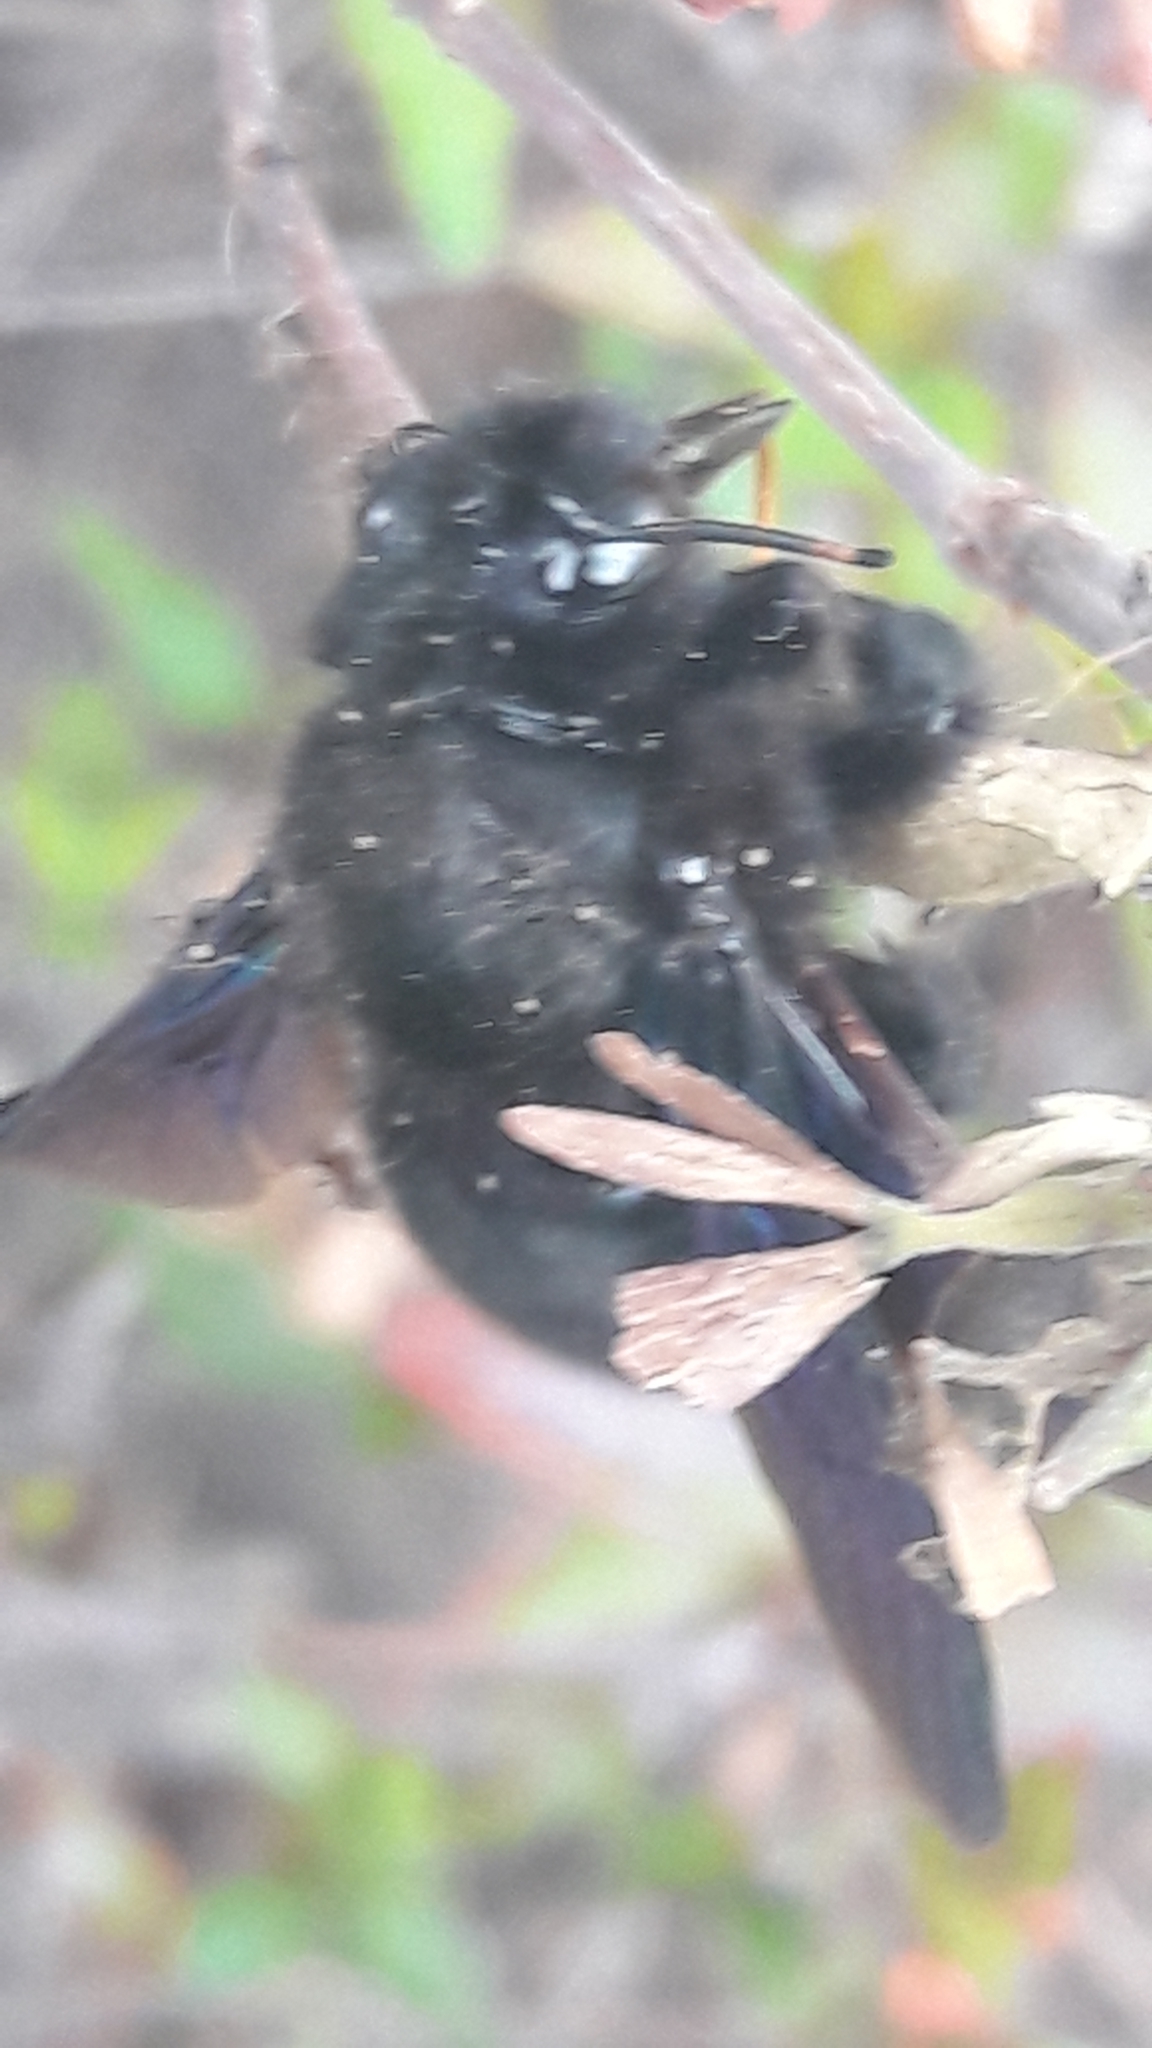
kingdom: Animalia
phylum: Arthropoda
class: Insecta
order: Hymenoptera
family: Apidae
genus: Xylocopa
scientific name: Xylocopa violacea
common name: Violet carpenter bee
